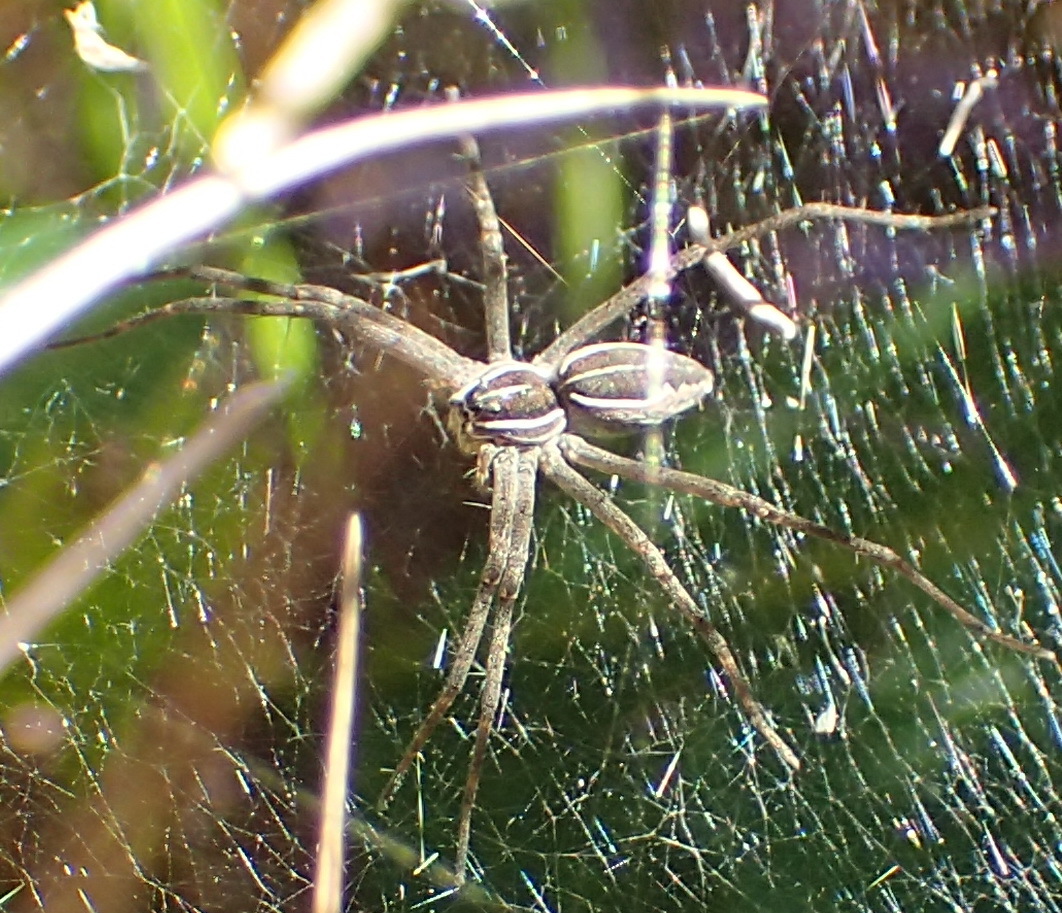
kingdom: Animalia
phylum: Arthropoda
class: Arachnida
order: Araneae
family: Pisauridae
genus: Euprosthenopsis
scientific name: Euprosthenopsis pulchella
